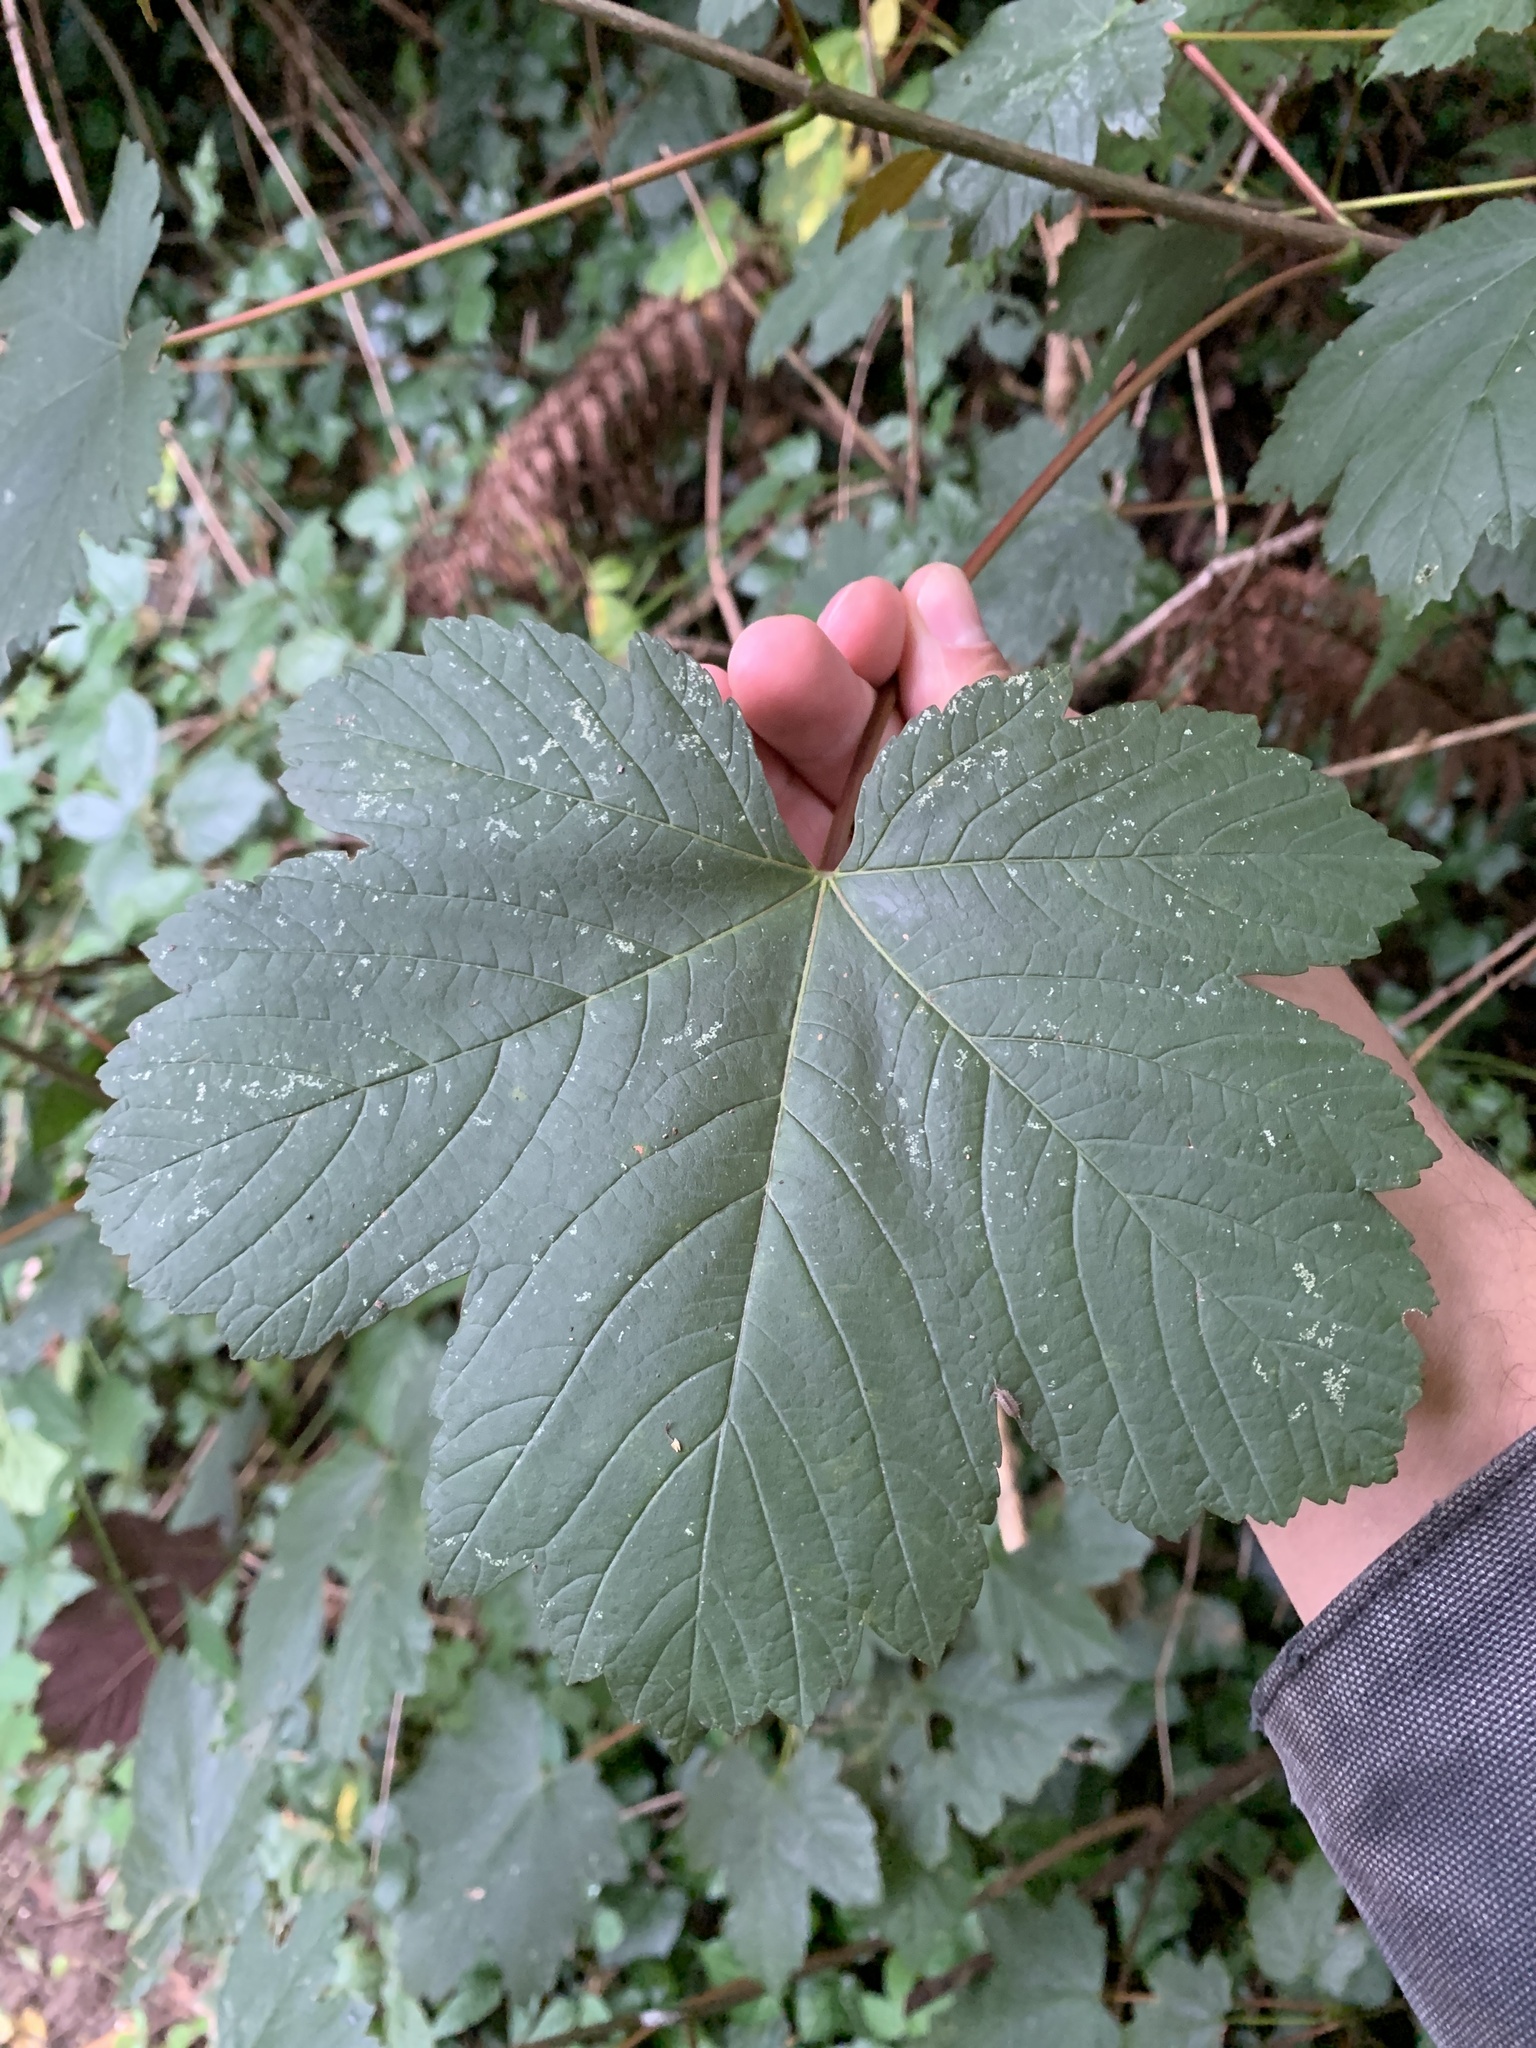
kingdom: Plantae
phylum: Tracheophyta
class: Magnoliopsida
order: Sapindales
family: Sapindaceae
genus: Acer
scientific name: Acer pseudoplatanus
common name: Sycamore
